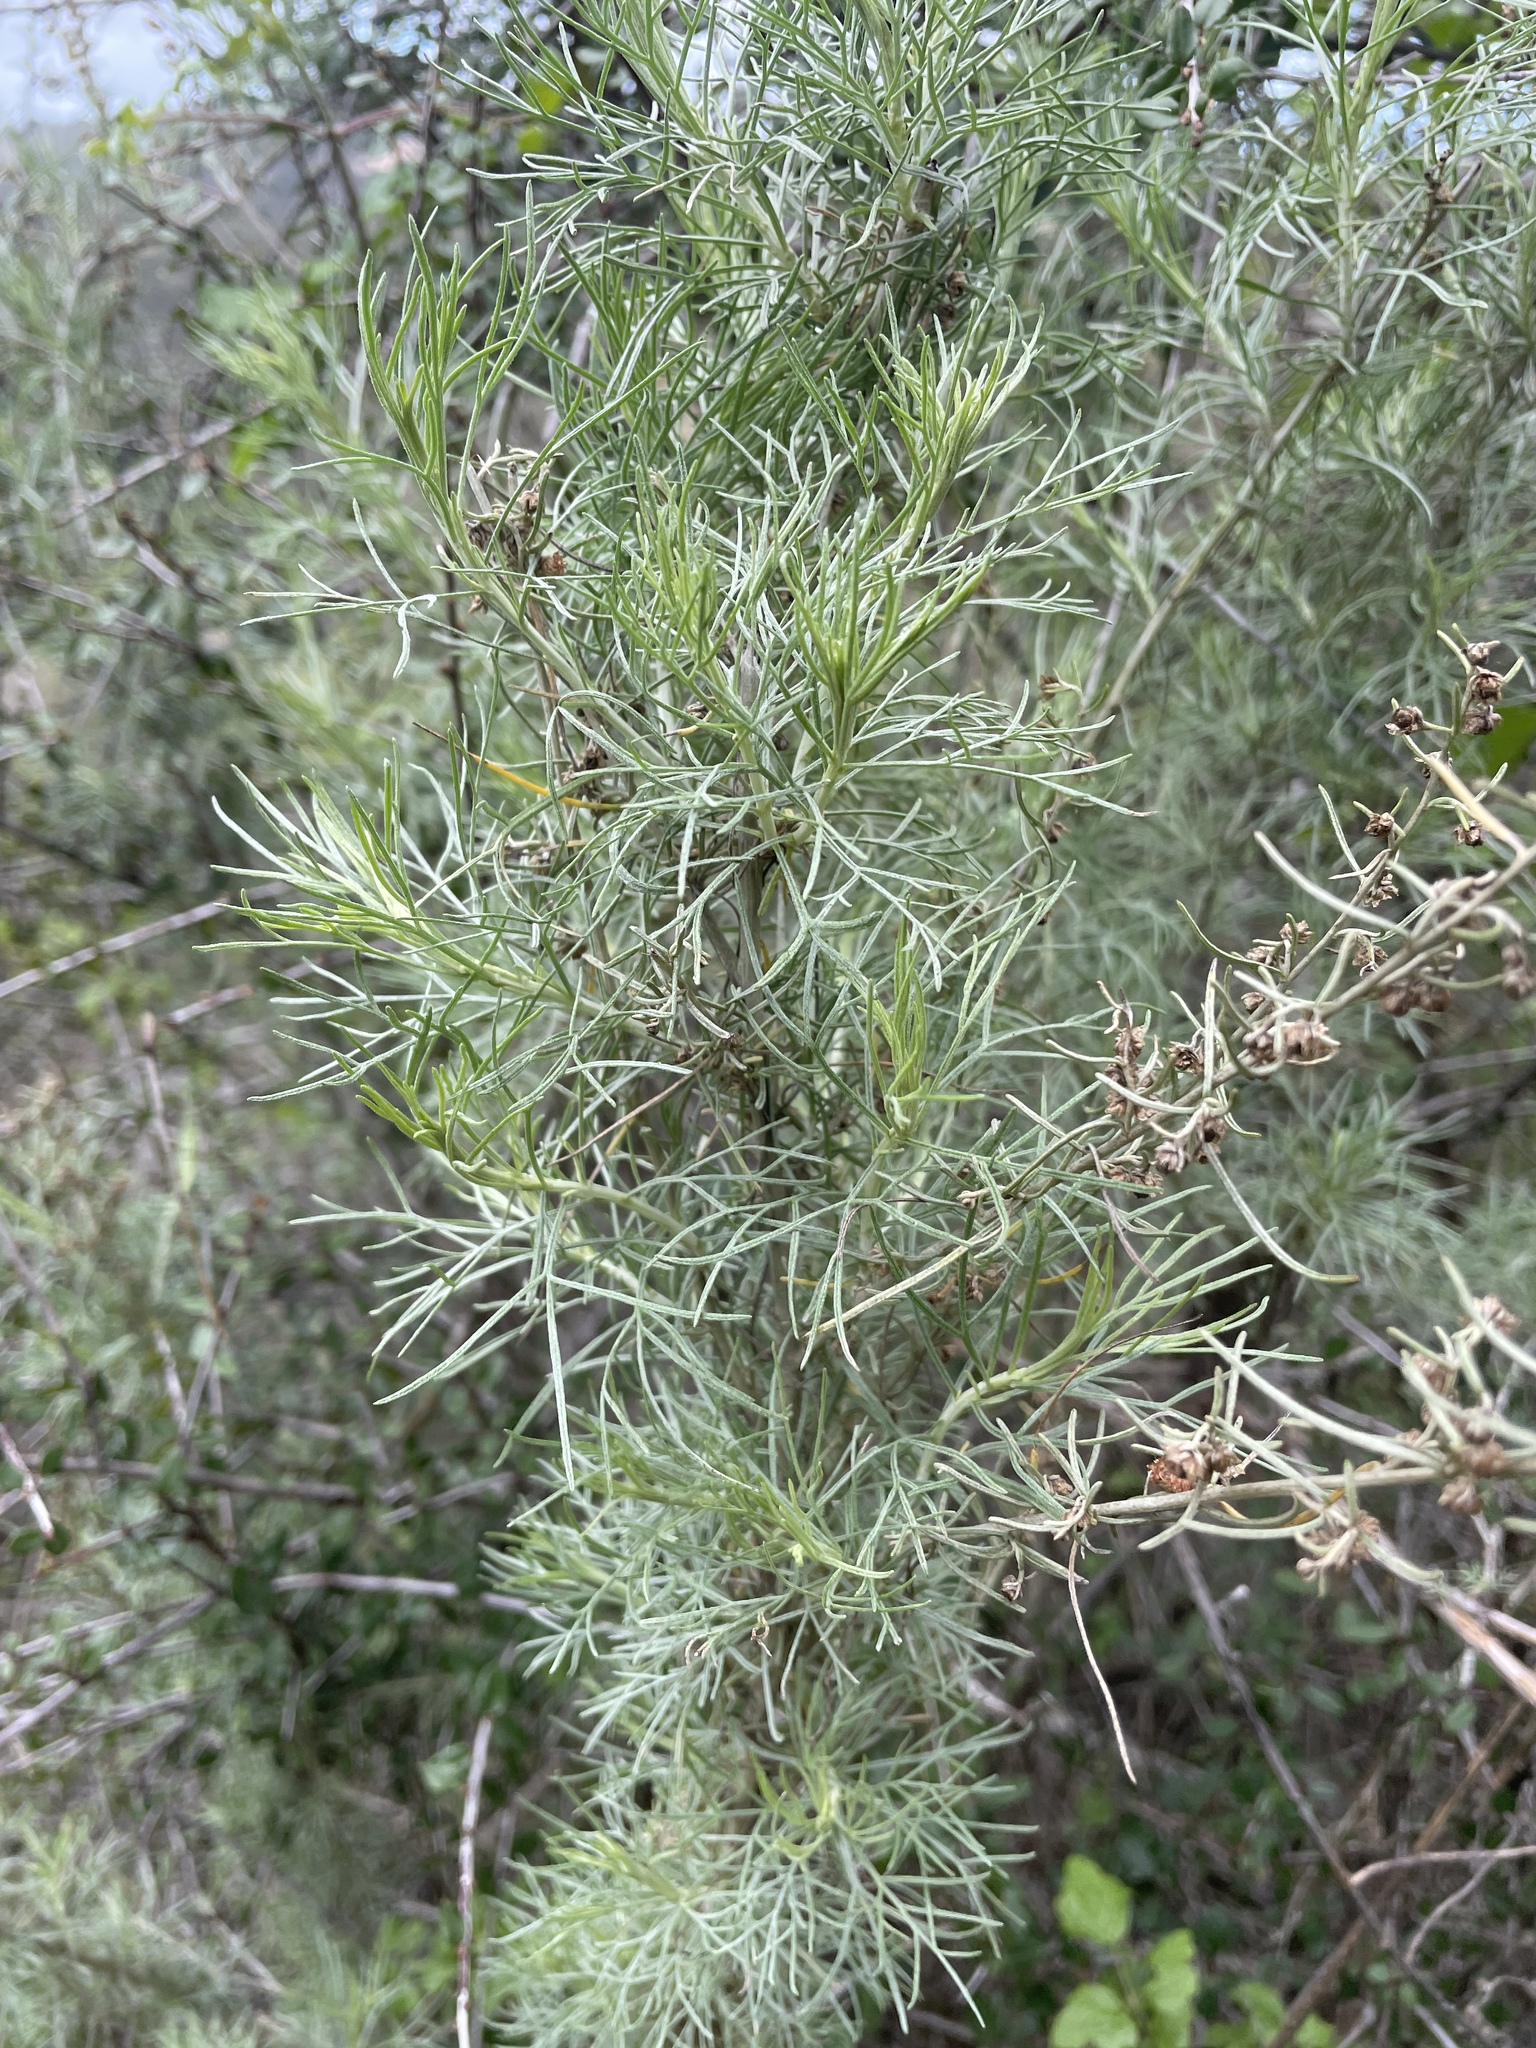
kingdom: Plantae
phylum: Tracheophyta
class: Magnoliopsida
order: Asterales
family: Asteraceae
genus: Artemisia
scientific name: Artemisia californica
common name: California sagebrush
